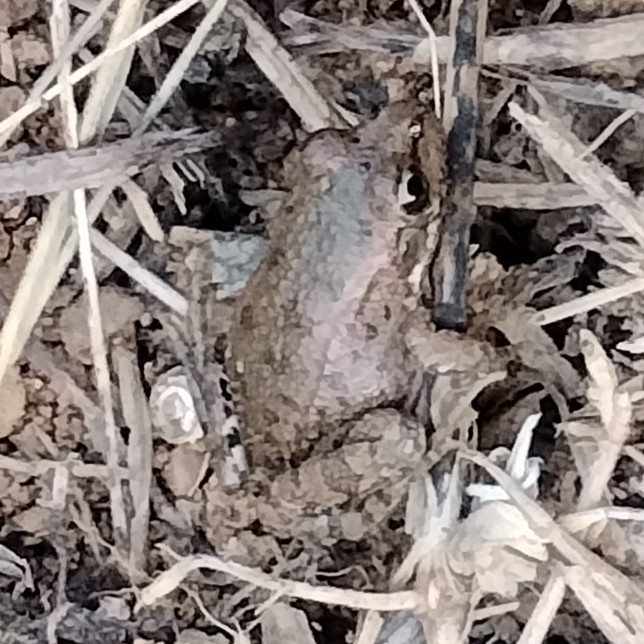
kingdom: Animalia
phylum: Chordata
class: Amphibia
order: Anura
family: Ranidae
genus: Pelophylax
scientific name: Pelophylax perezi
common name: Perez's frog
